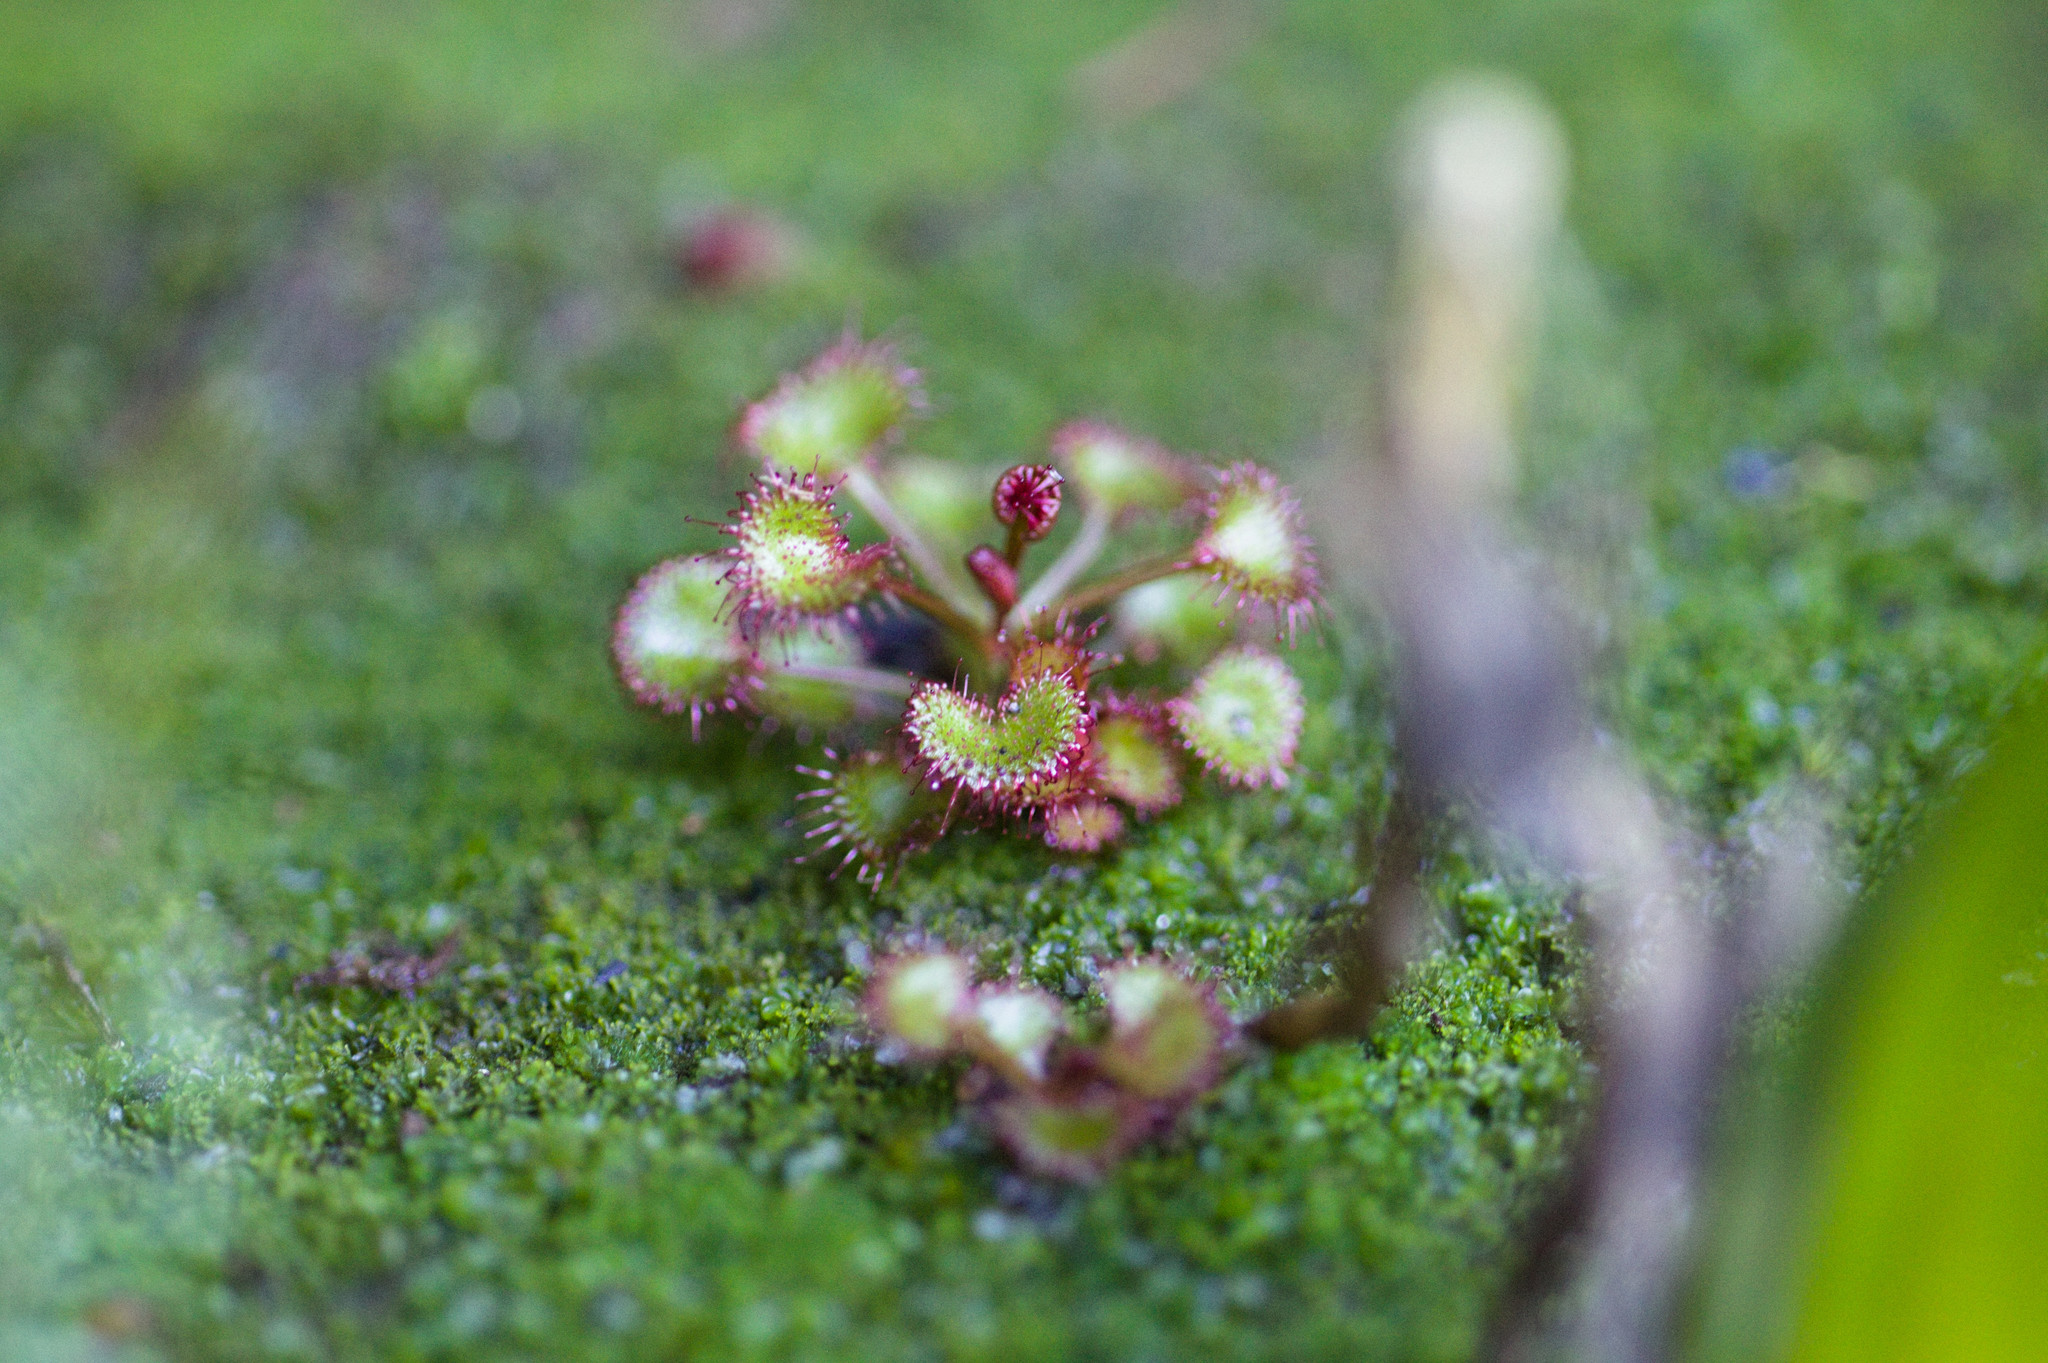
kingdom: Plantae
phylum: Tracheophyta
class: Magnoliopsida
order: Caryophyllales
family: Droseraceae
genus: Drosera
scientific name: Drosera monticola
